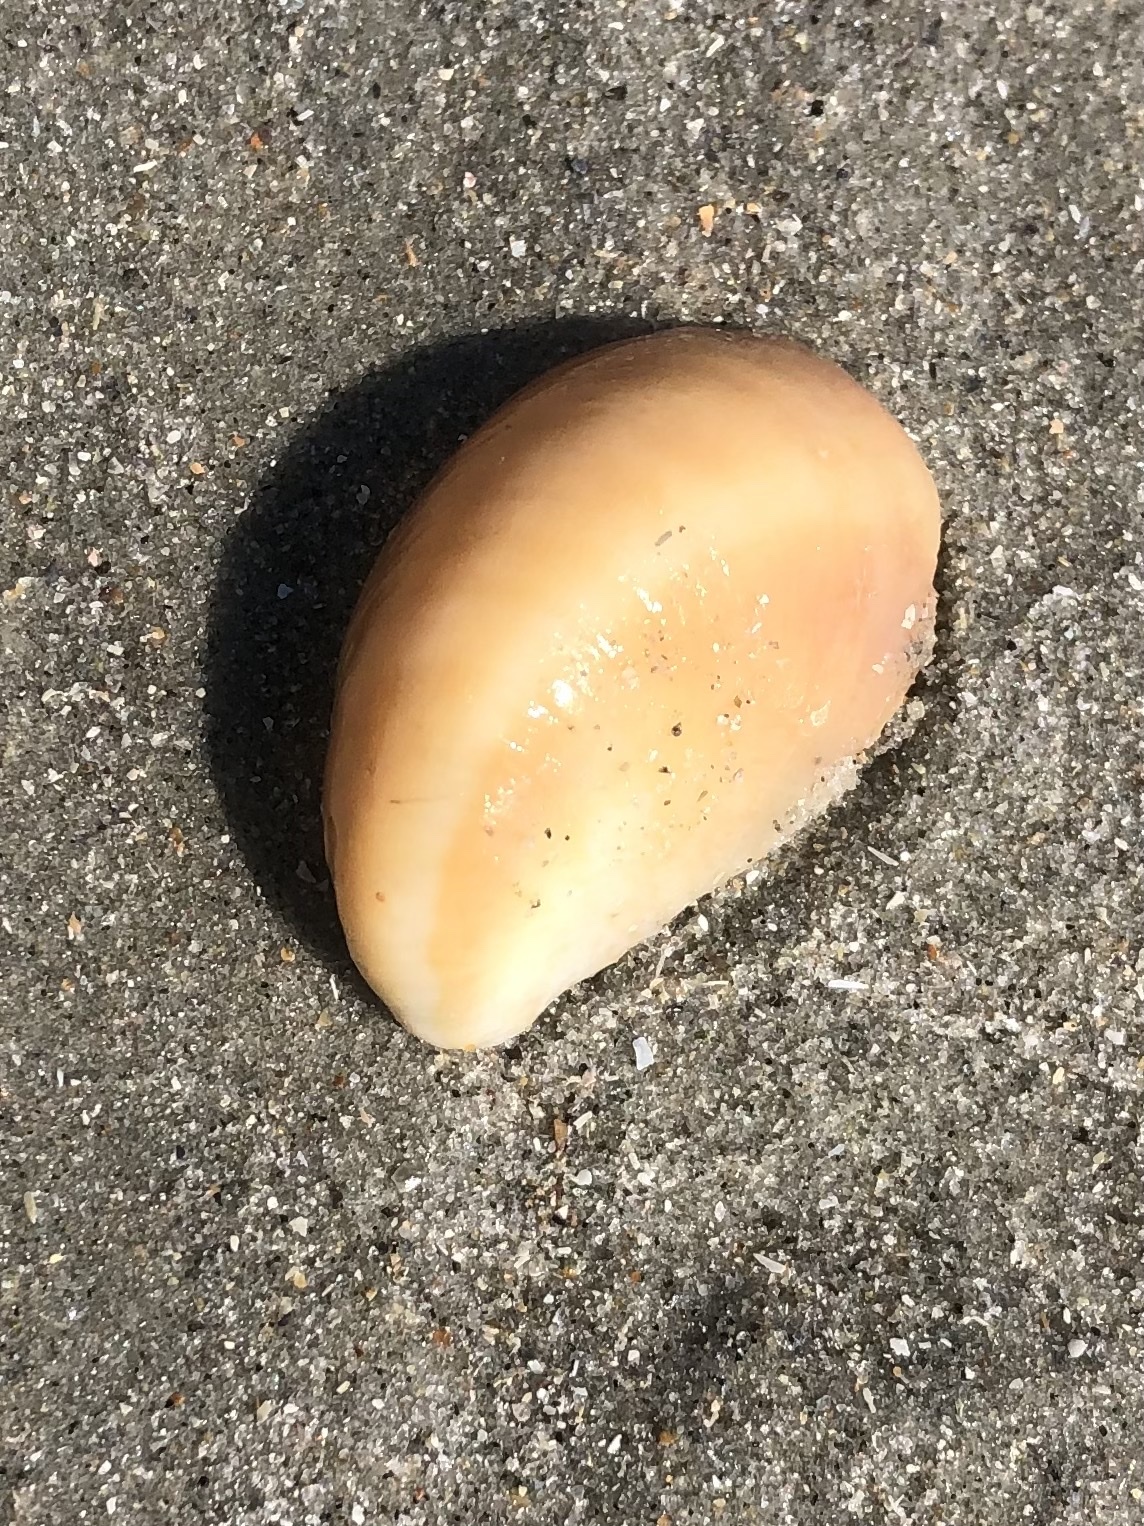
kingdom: Animalia
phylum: Mollusca
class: Gastropoda
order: Littorinimorpha
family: Calyptraeidae
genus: Crepidula
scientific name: Crepidula fornicata
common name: Slipper limpet
